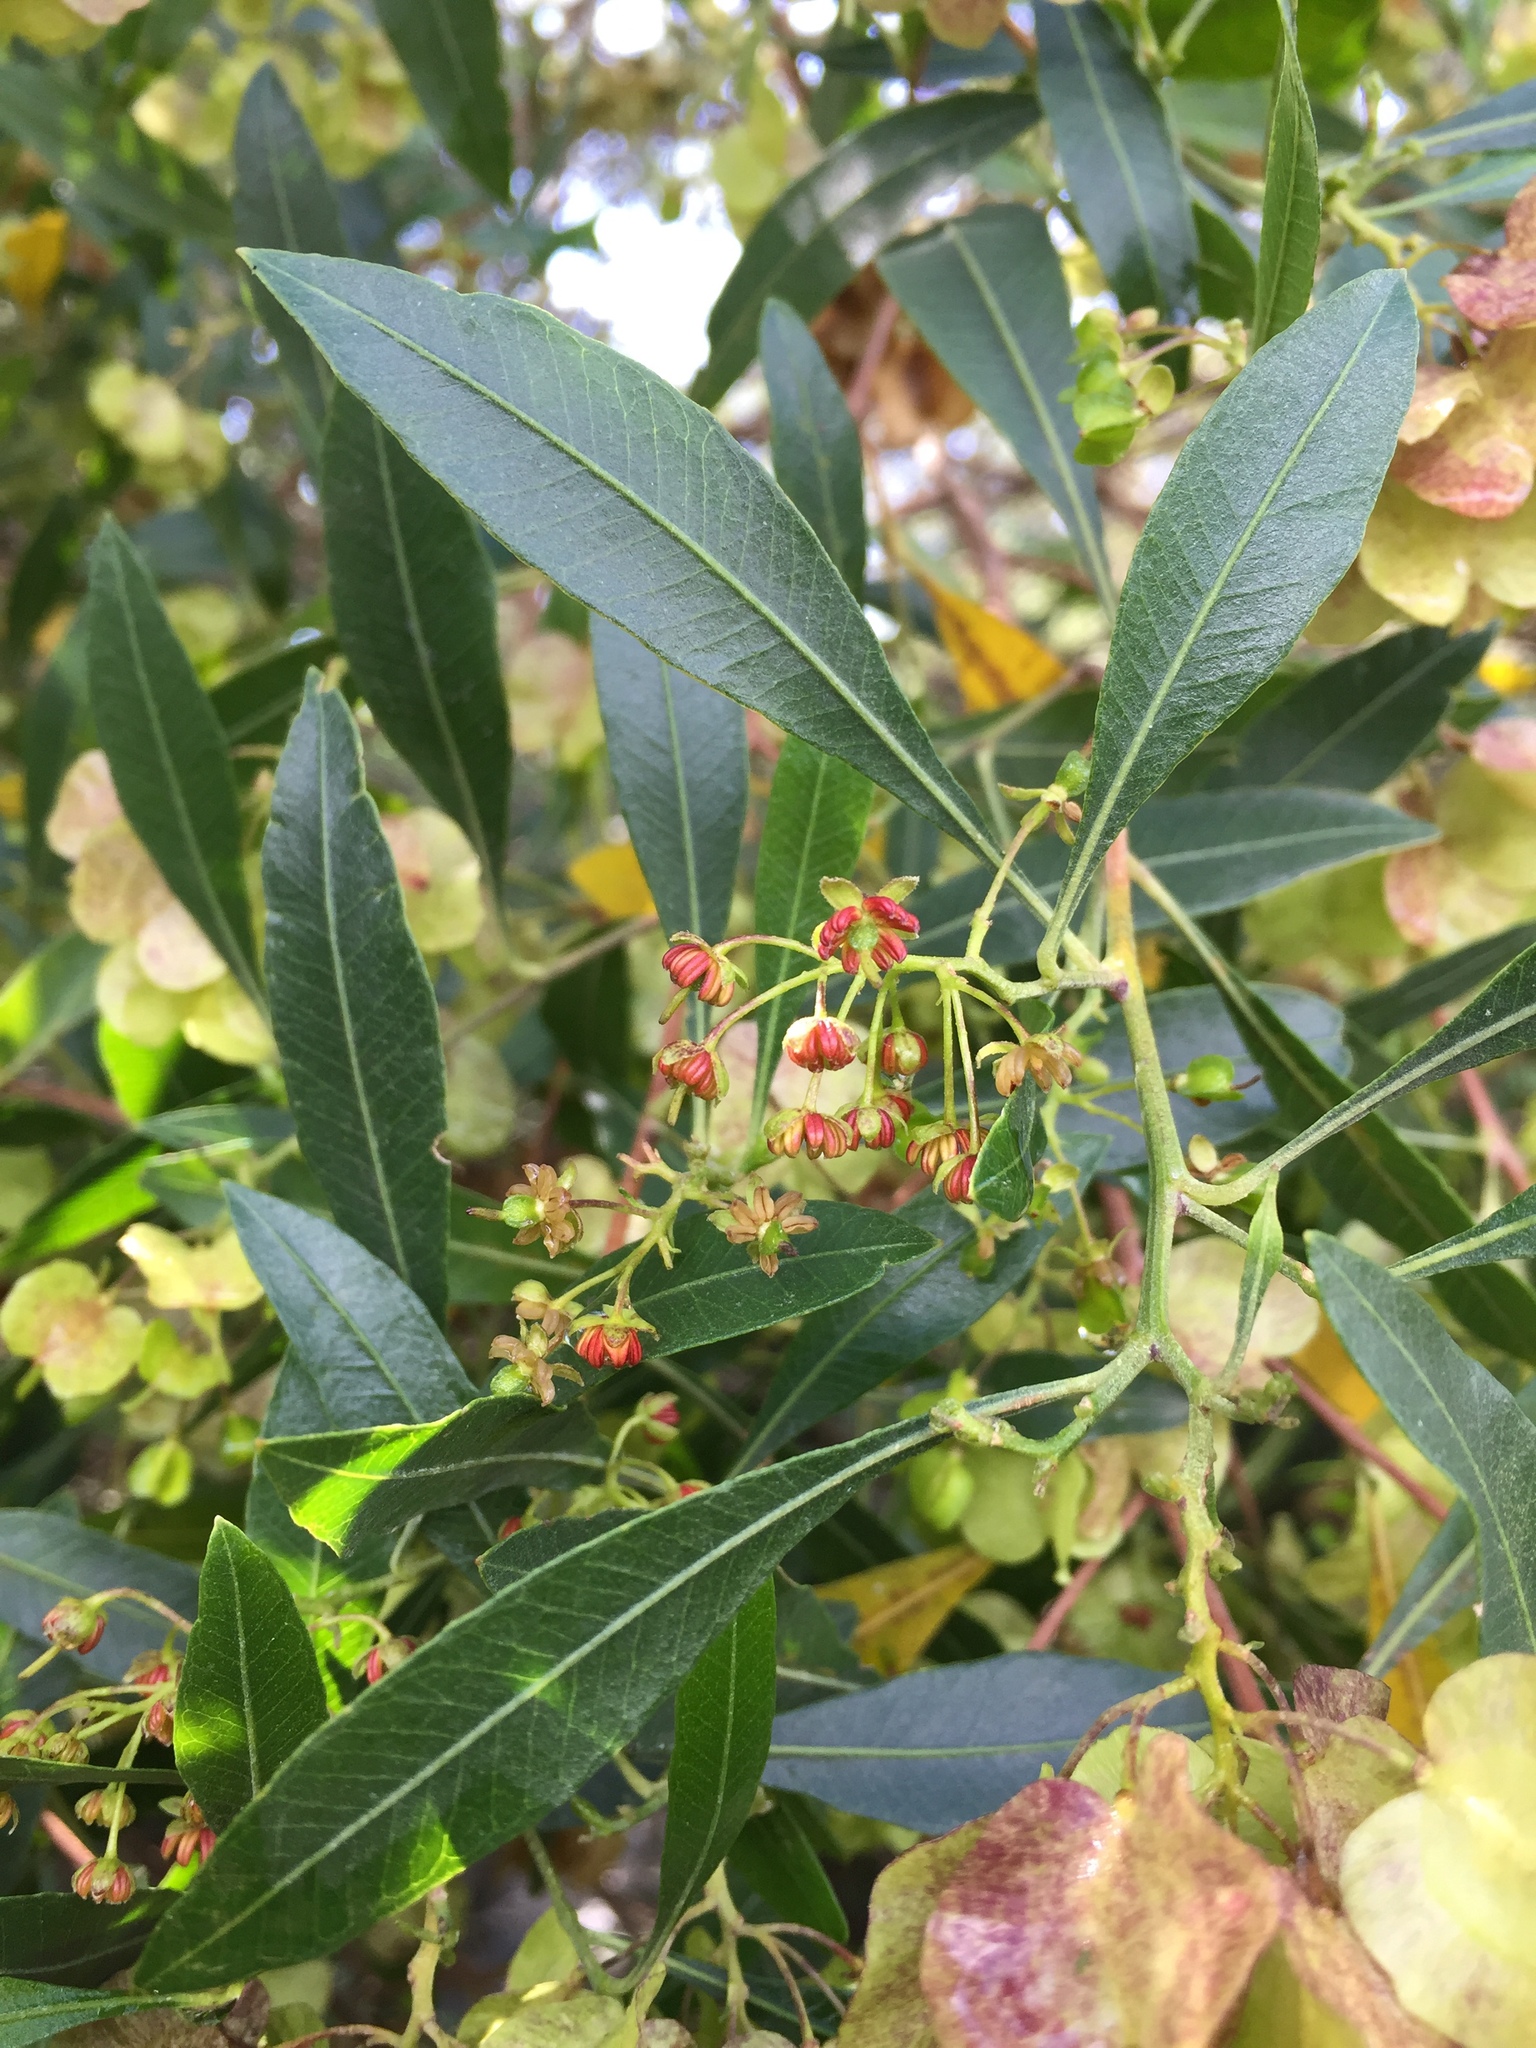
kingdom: Plantae
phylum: Tracheophyta
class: Magnoliopsida
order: Sapindales
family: Sapindaceae
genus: Dodonaea
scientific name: Dodonaea viscosa
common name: Hopbush
